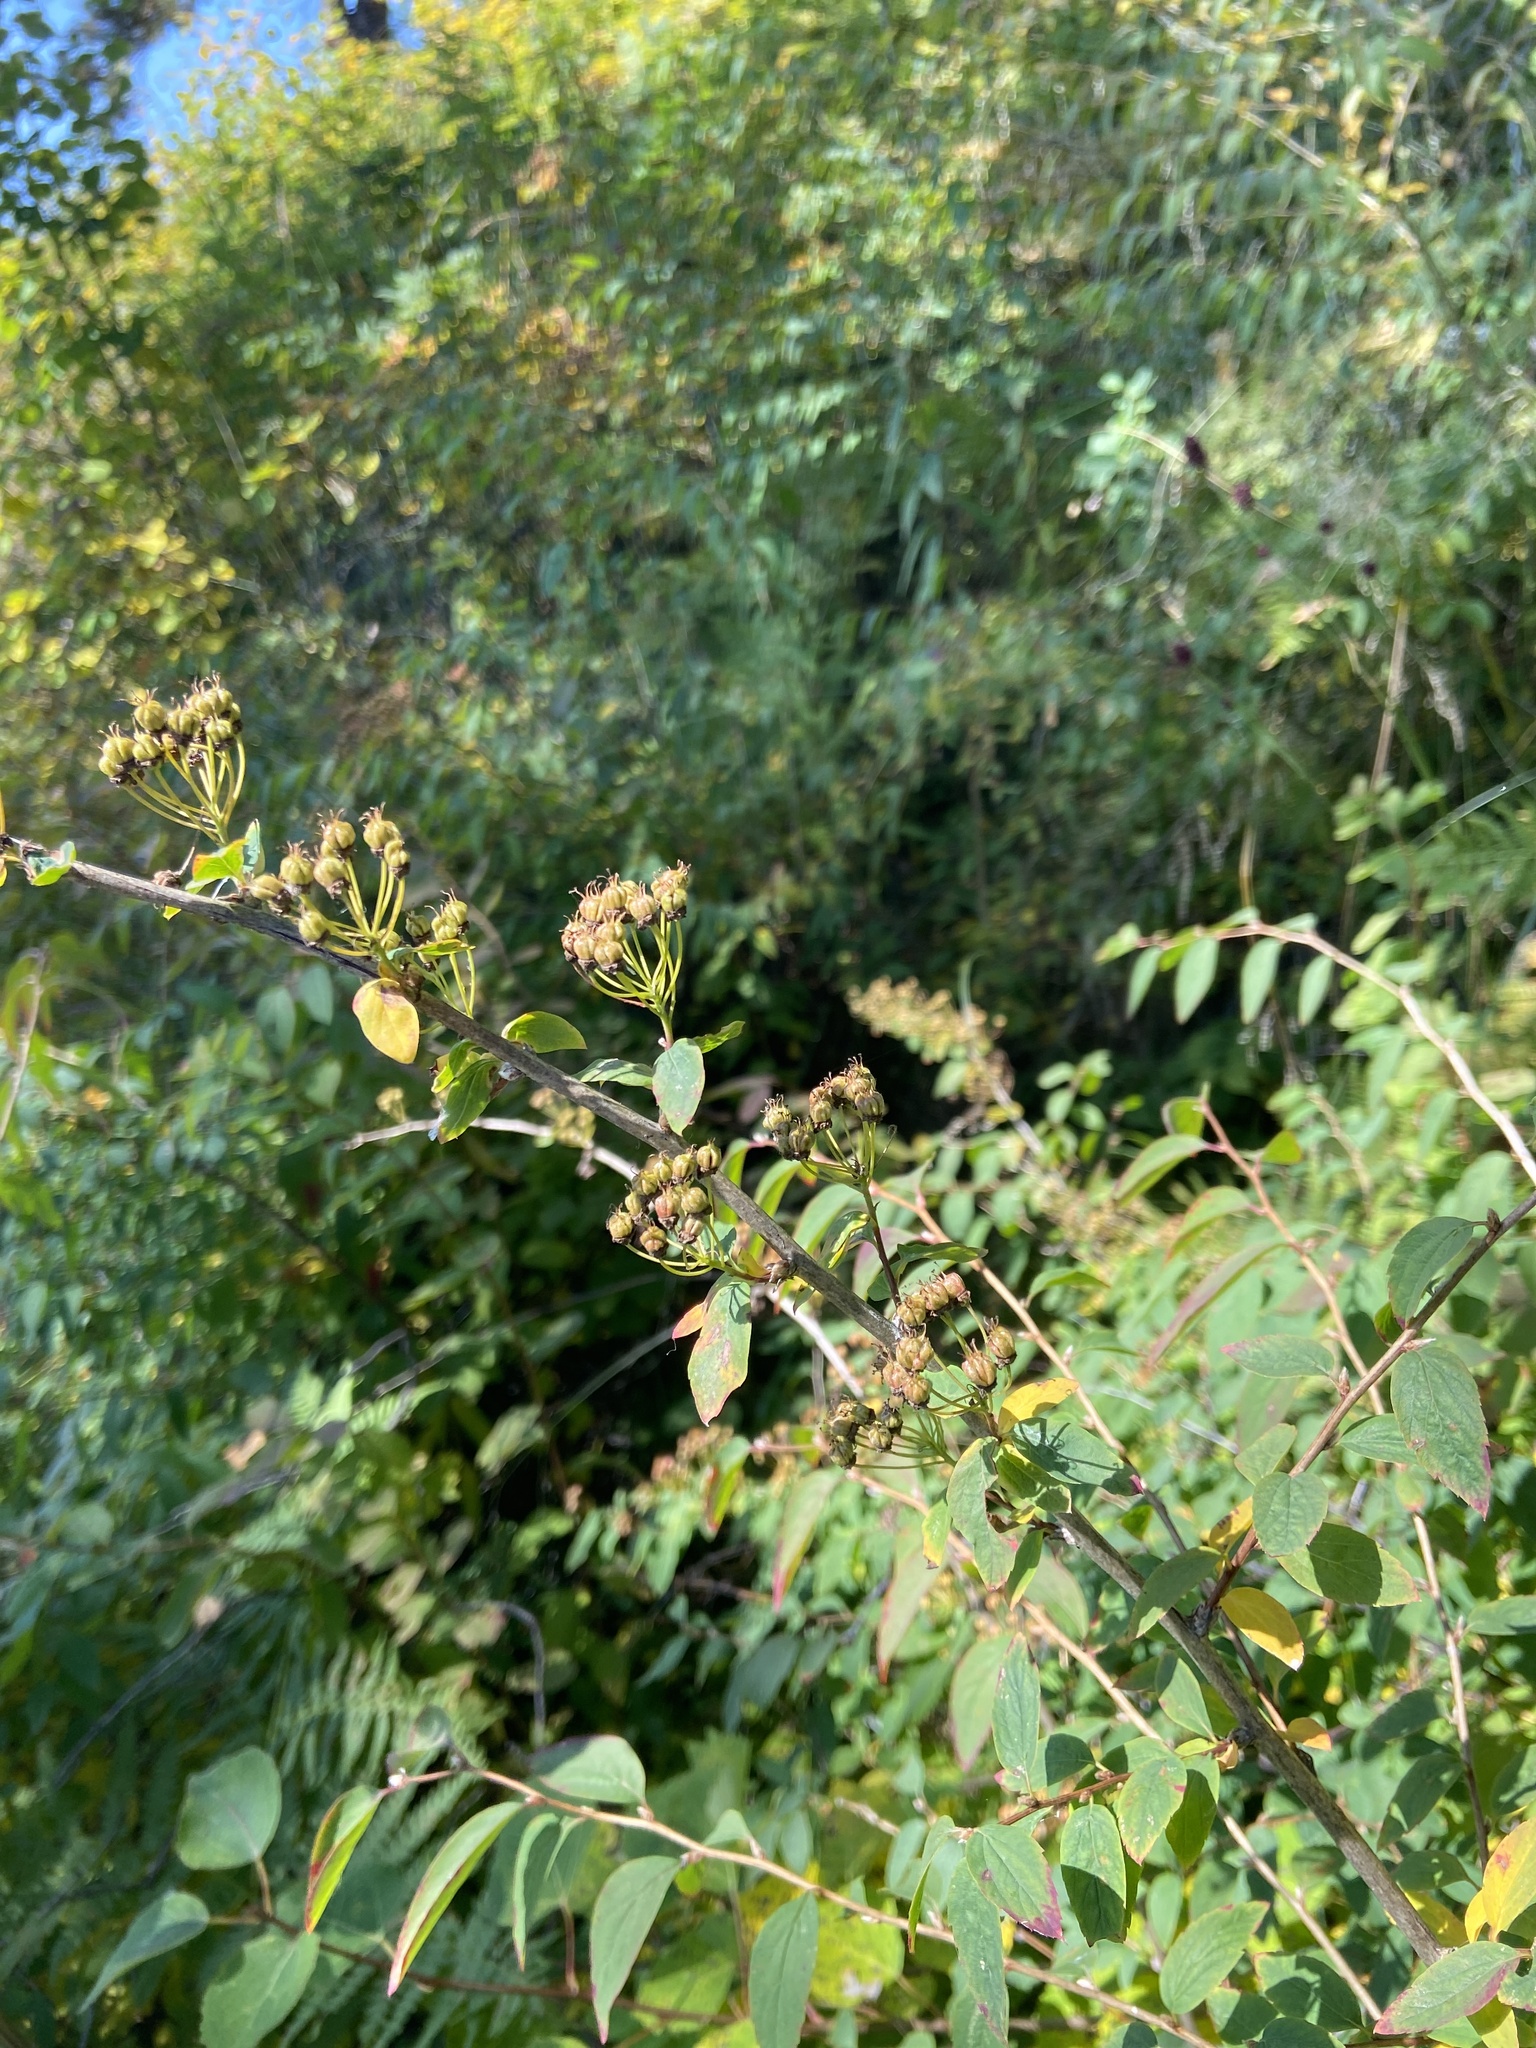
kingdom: Plantae
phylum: Tracheophyta
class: Magnoliopsida
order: Rosales
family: Rosaceae
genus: Spiraea
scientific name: Spiraea flexuosa
